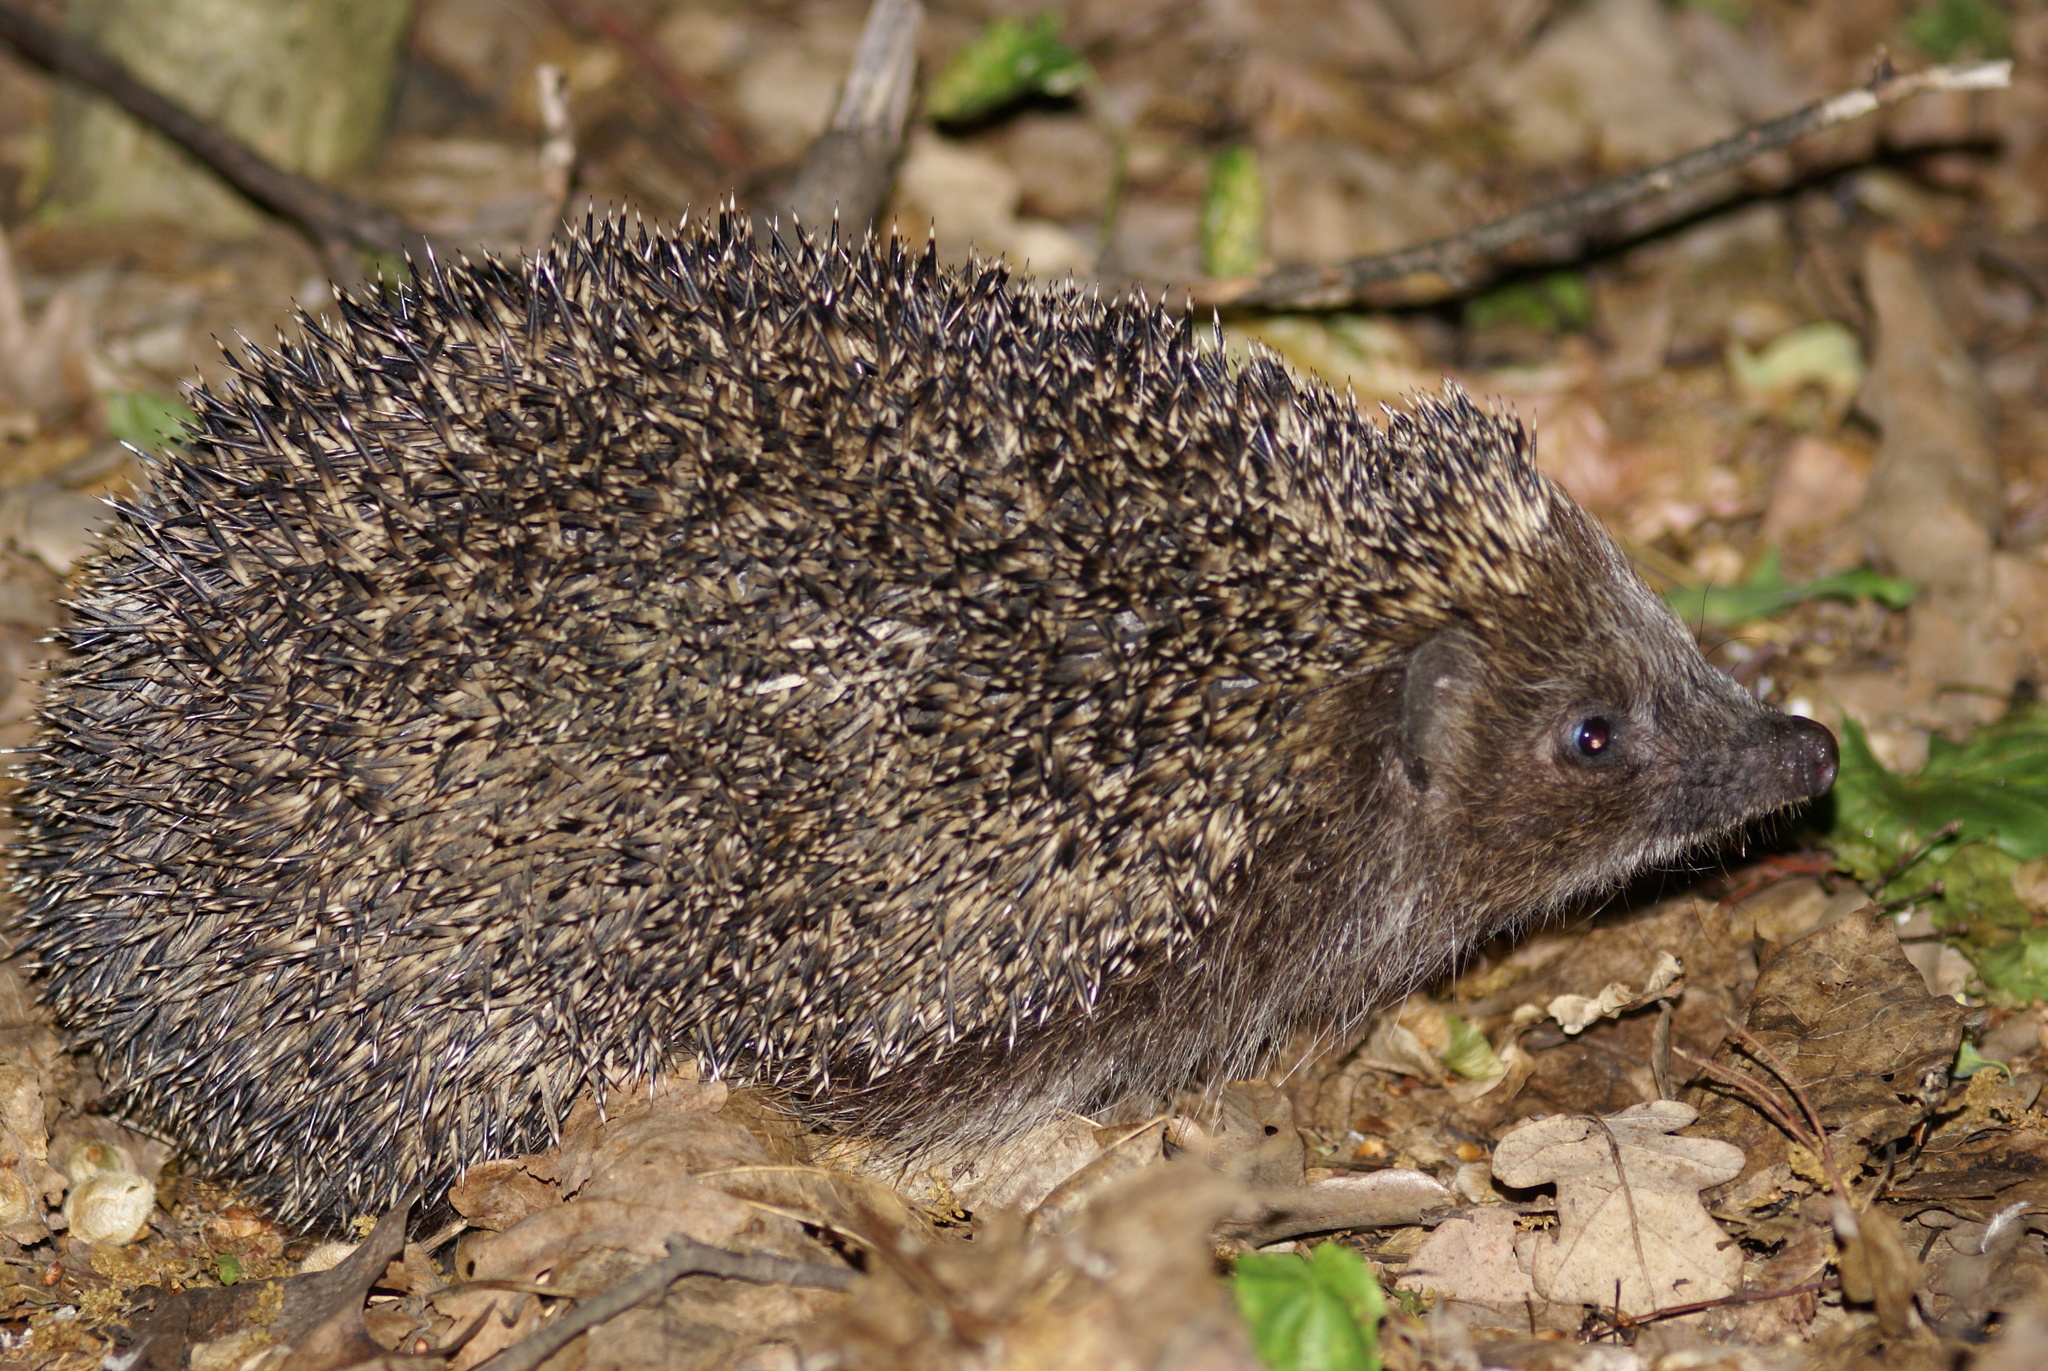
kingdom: Animalia
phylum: Chordata
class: Mammalia
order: Erinaceomorpha
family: Erinaceidae
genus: Erinaceus
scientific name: Erinaceus roumanicus
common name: Northern white-breasted hedgehog
